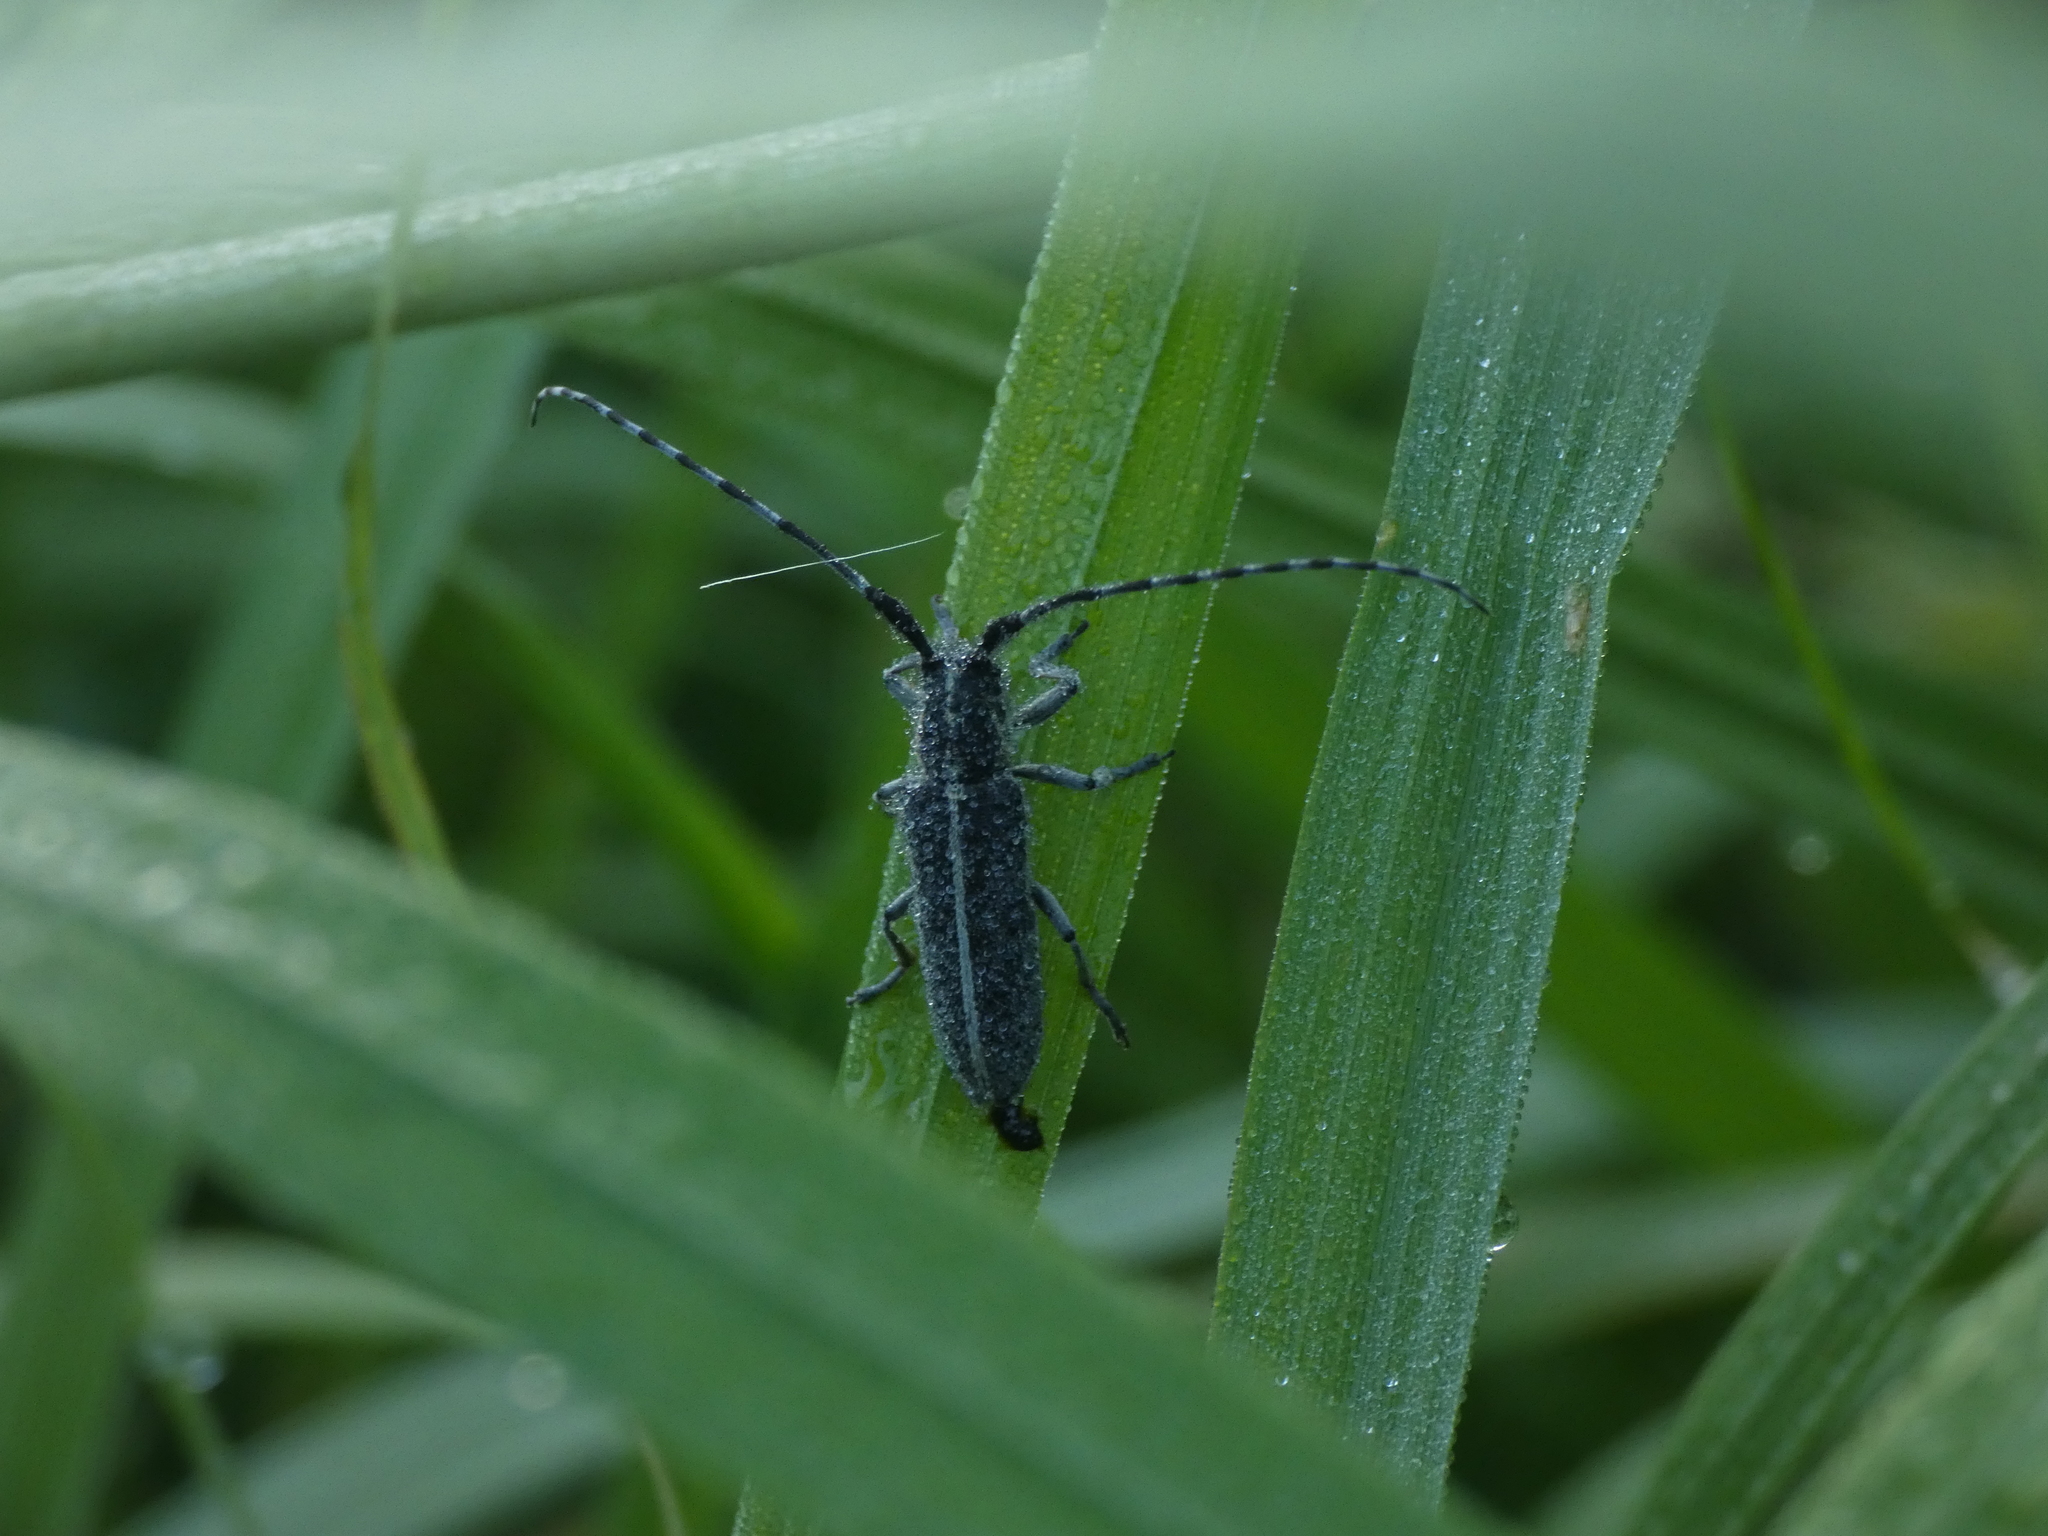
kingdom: Animalia
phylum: Arthropoda
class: Insecta
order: Coleoptera
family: Cerambycidae
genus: Agapanthia
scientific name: Agapanthia cardui
